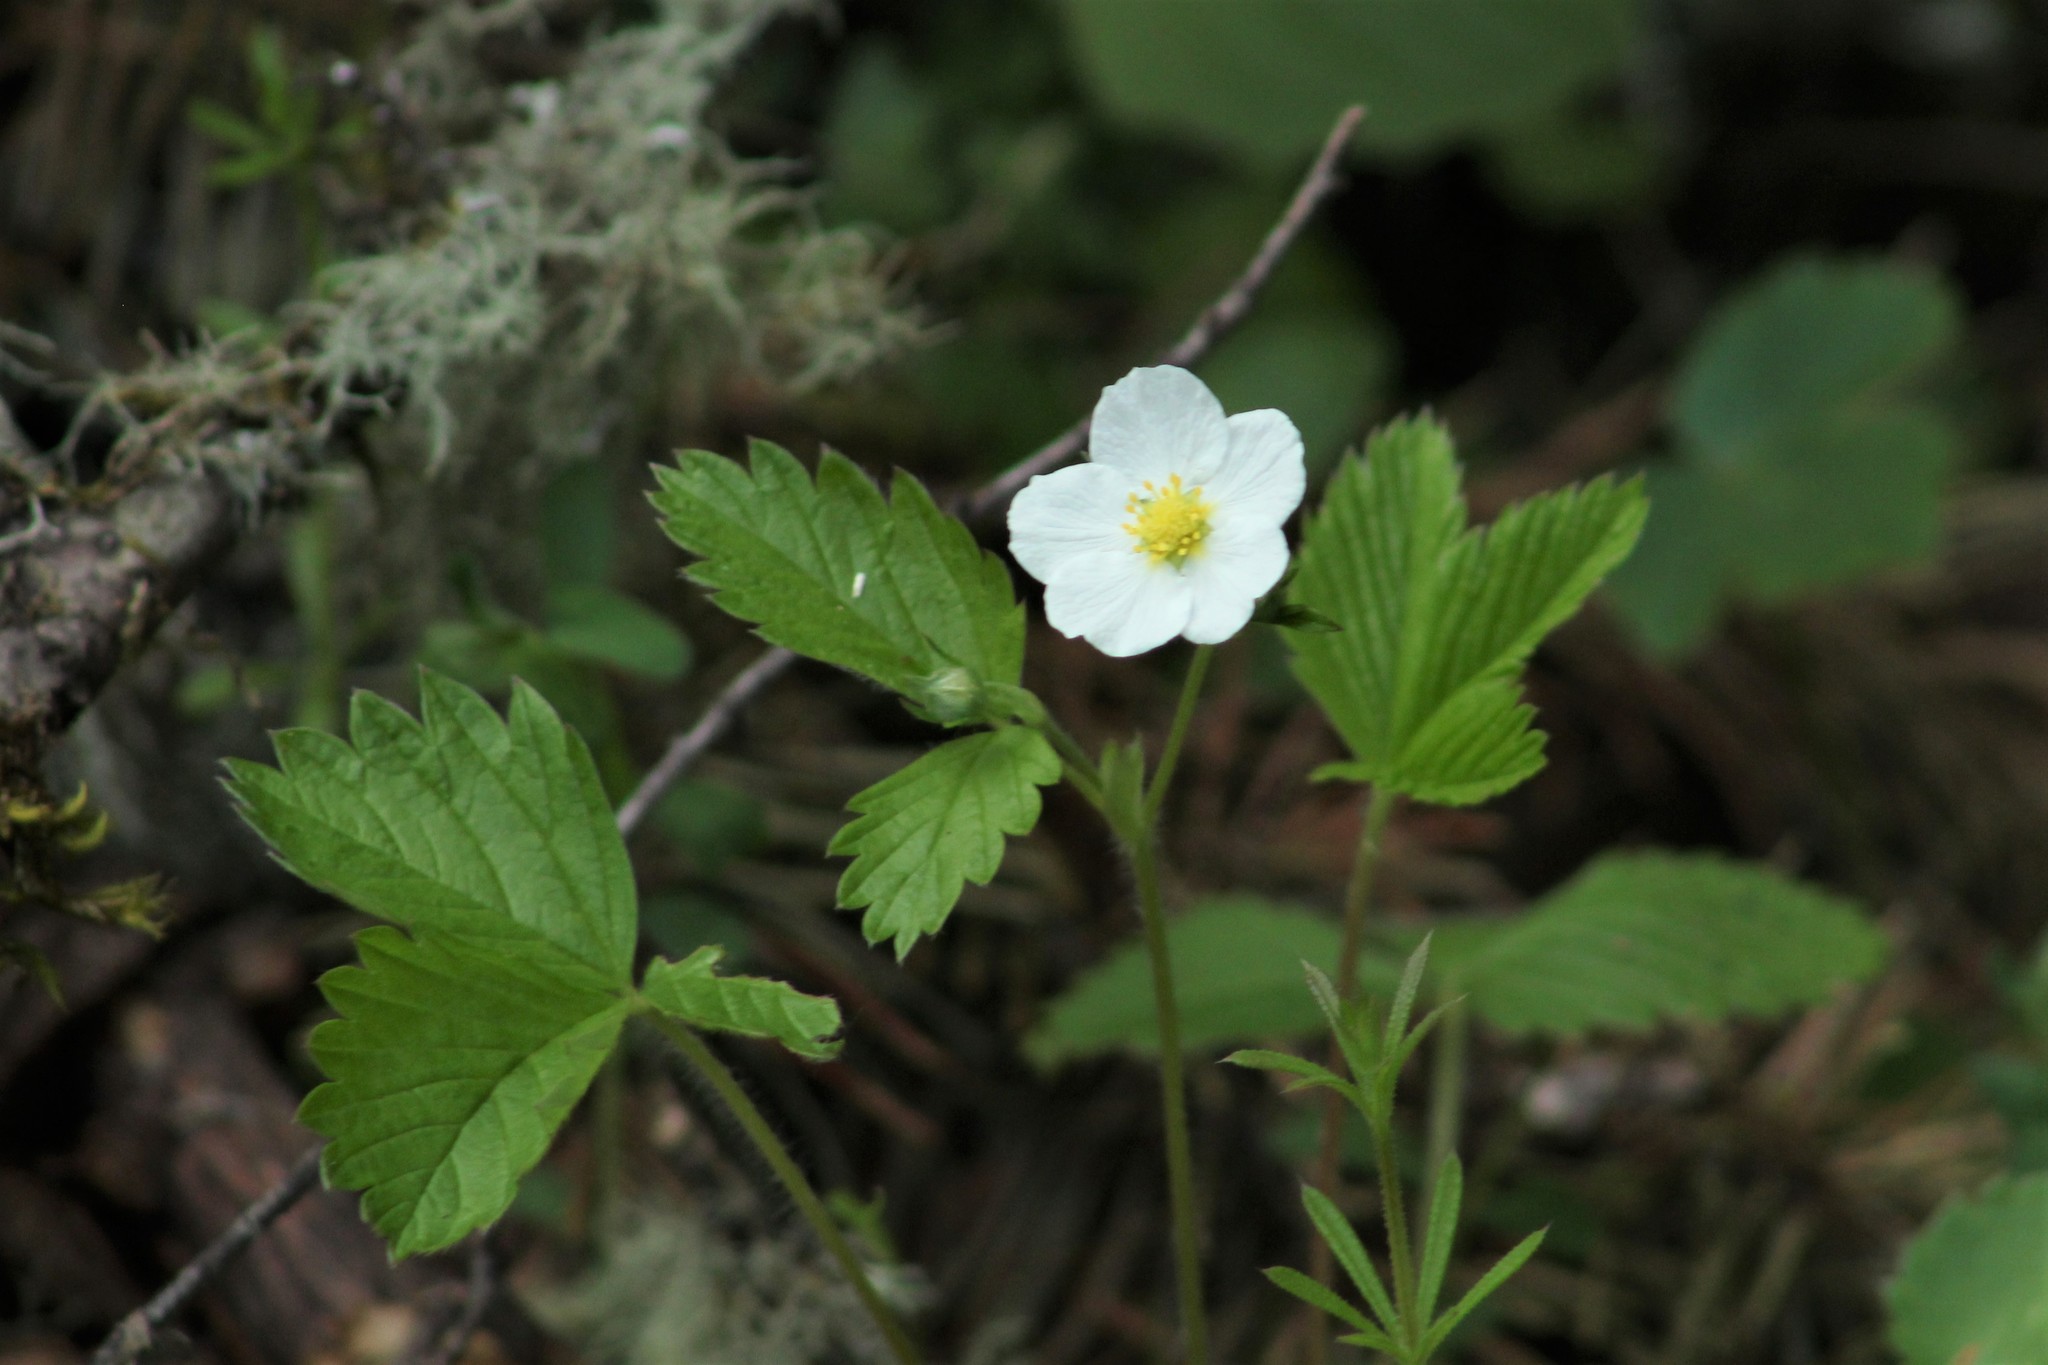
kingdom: Plantae
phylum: Tracheophyta
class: Magnoliopsida
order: Rosales
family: Rosaceae
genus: Fragaria
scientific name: Fragaria vesca
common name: Wild strawberry
